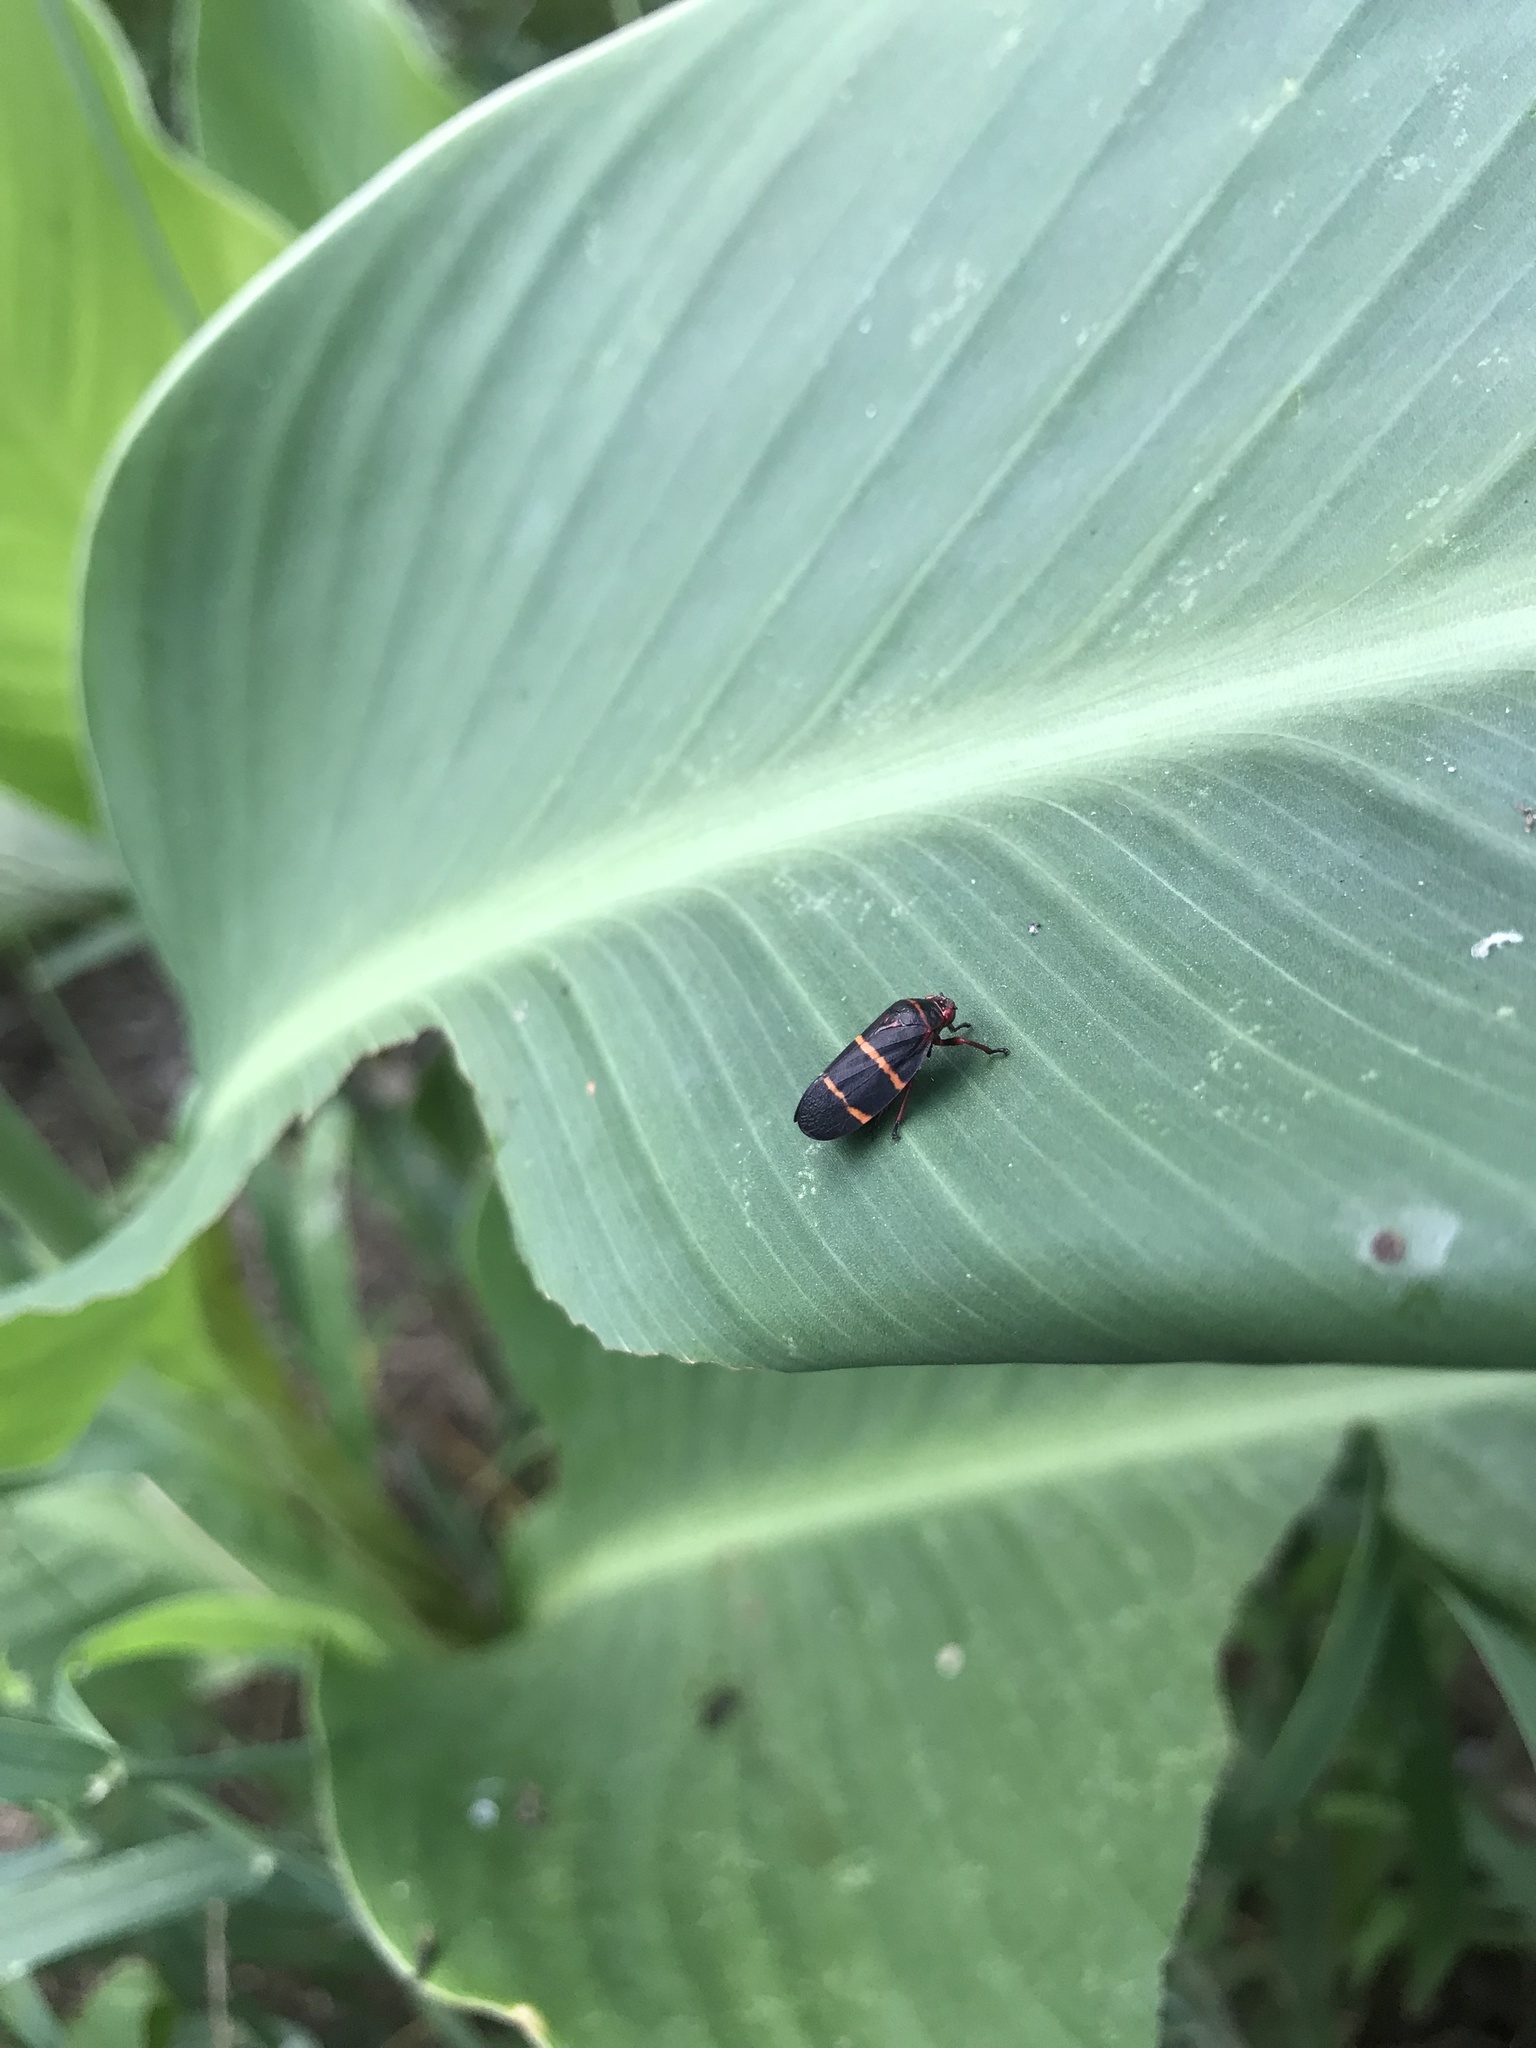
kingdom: Animalia
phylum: Arthropoda
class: Insecta
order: Hemiptera
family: Cercopidae
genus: Prosapia
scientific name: Prosapia bicincta
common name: Twolined spittlebug
